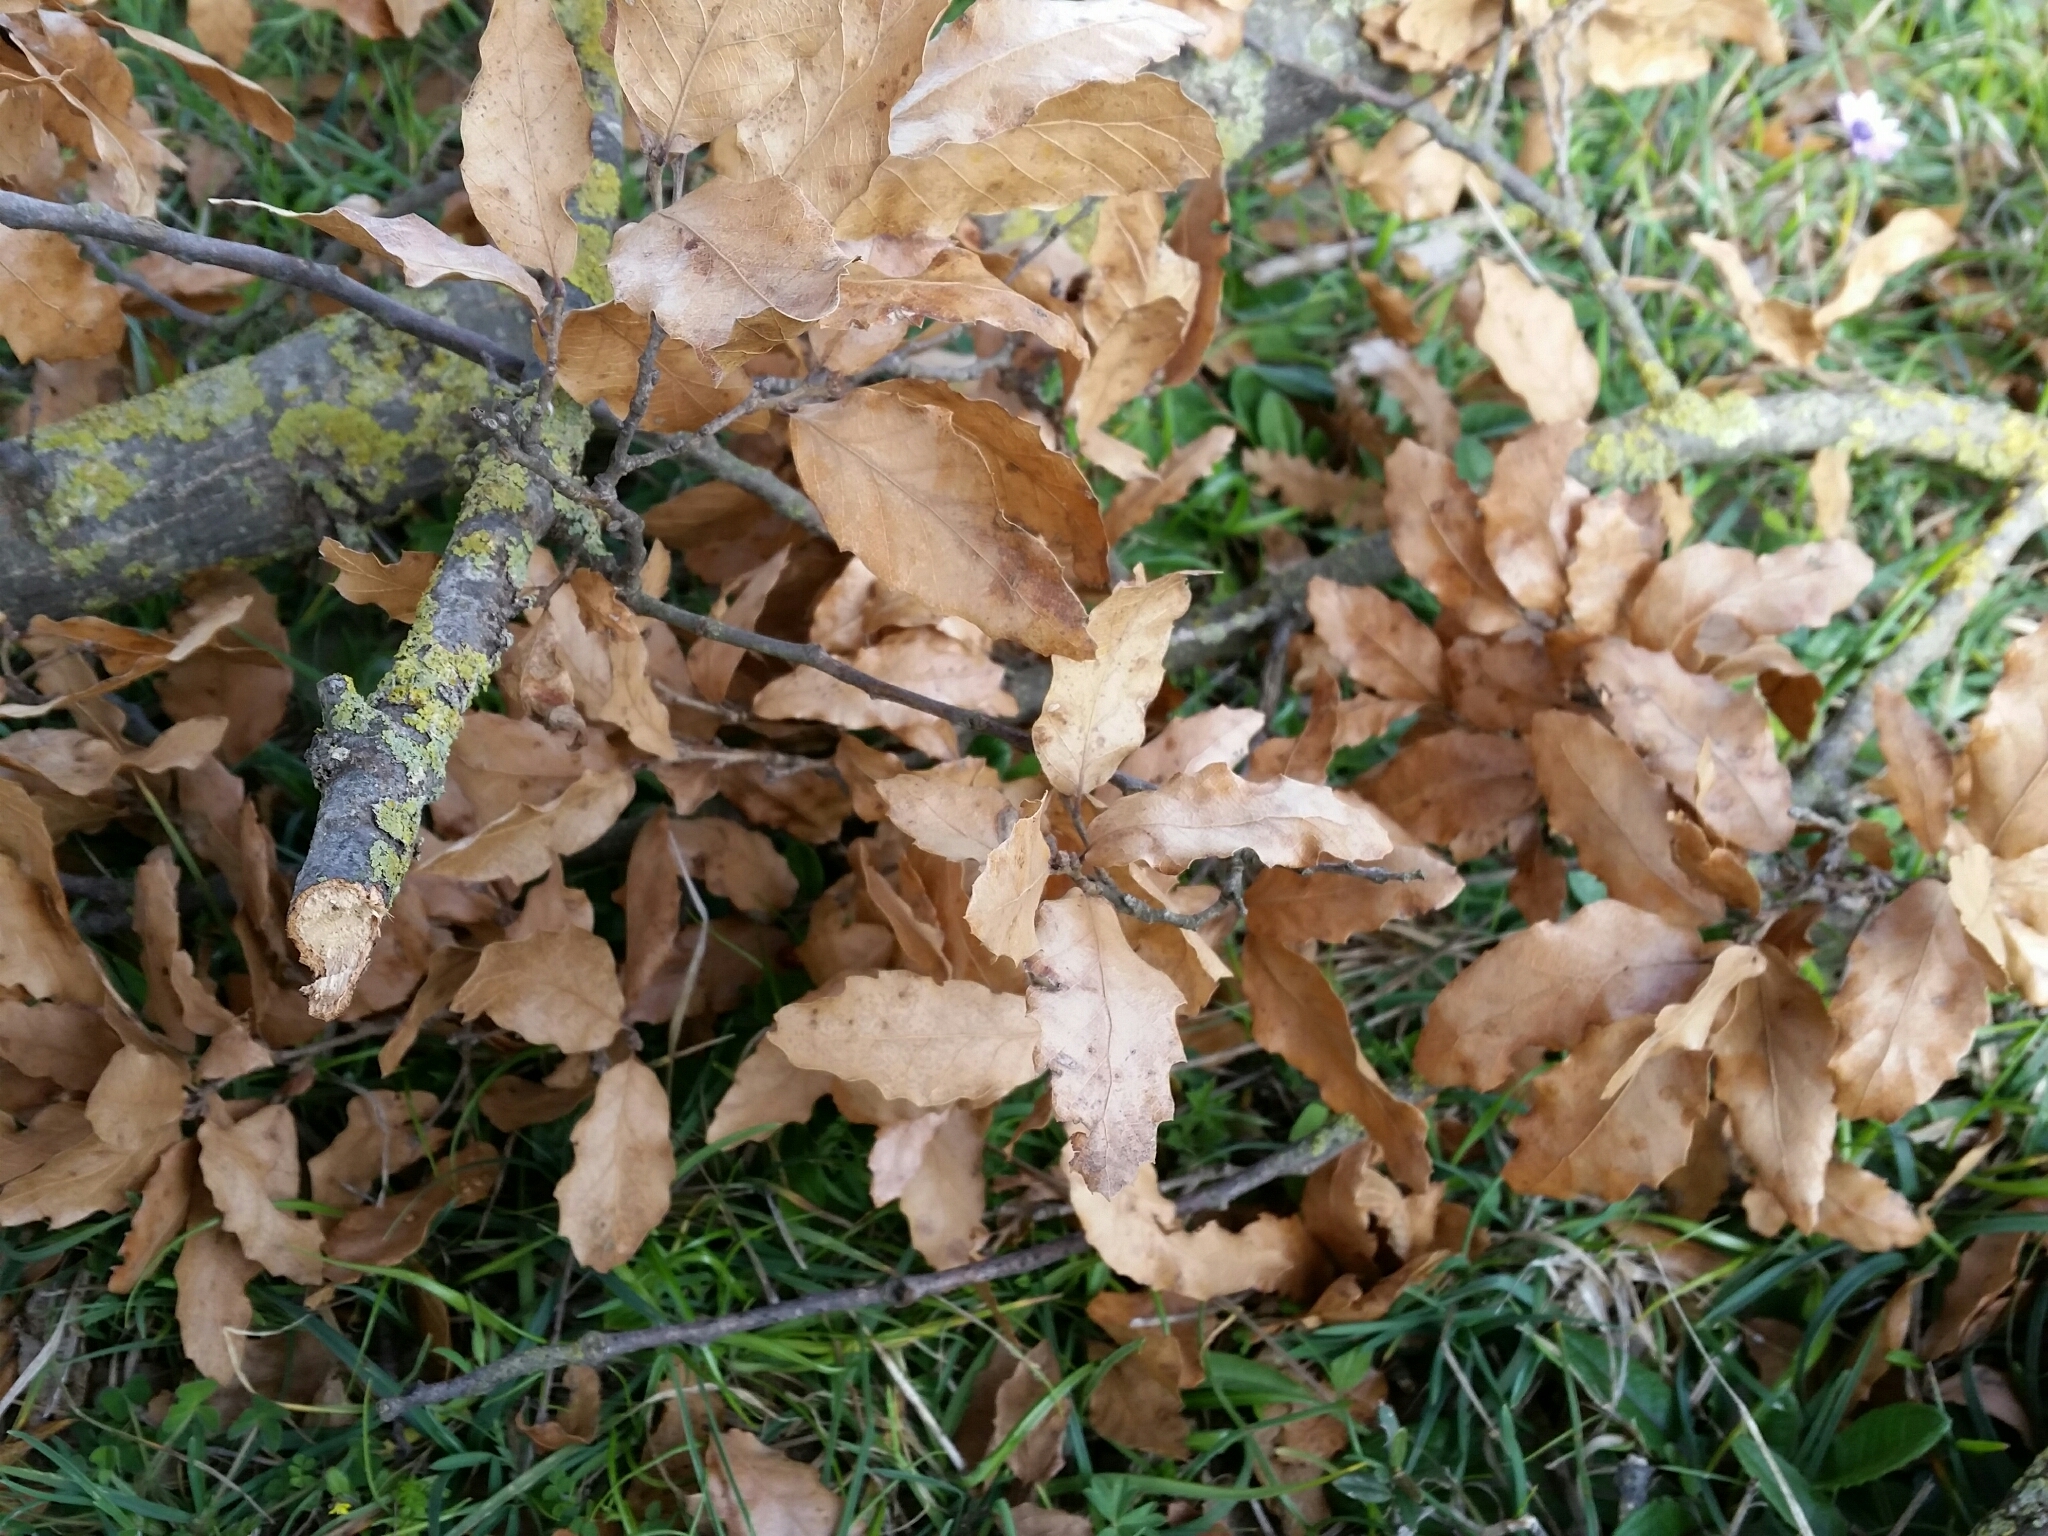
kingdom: Plantae
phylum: Tracheophyta
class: Magnoliopsida
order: Fagales
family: Fagaceae
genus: Quercus
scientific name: Quercus trojana
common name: Macedonian oak
